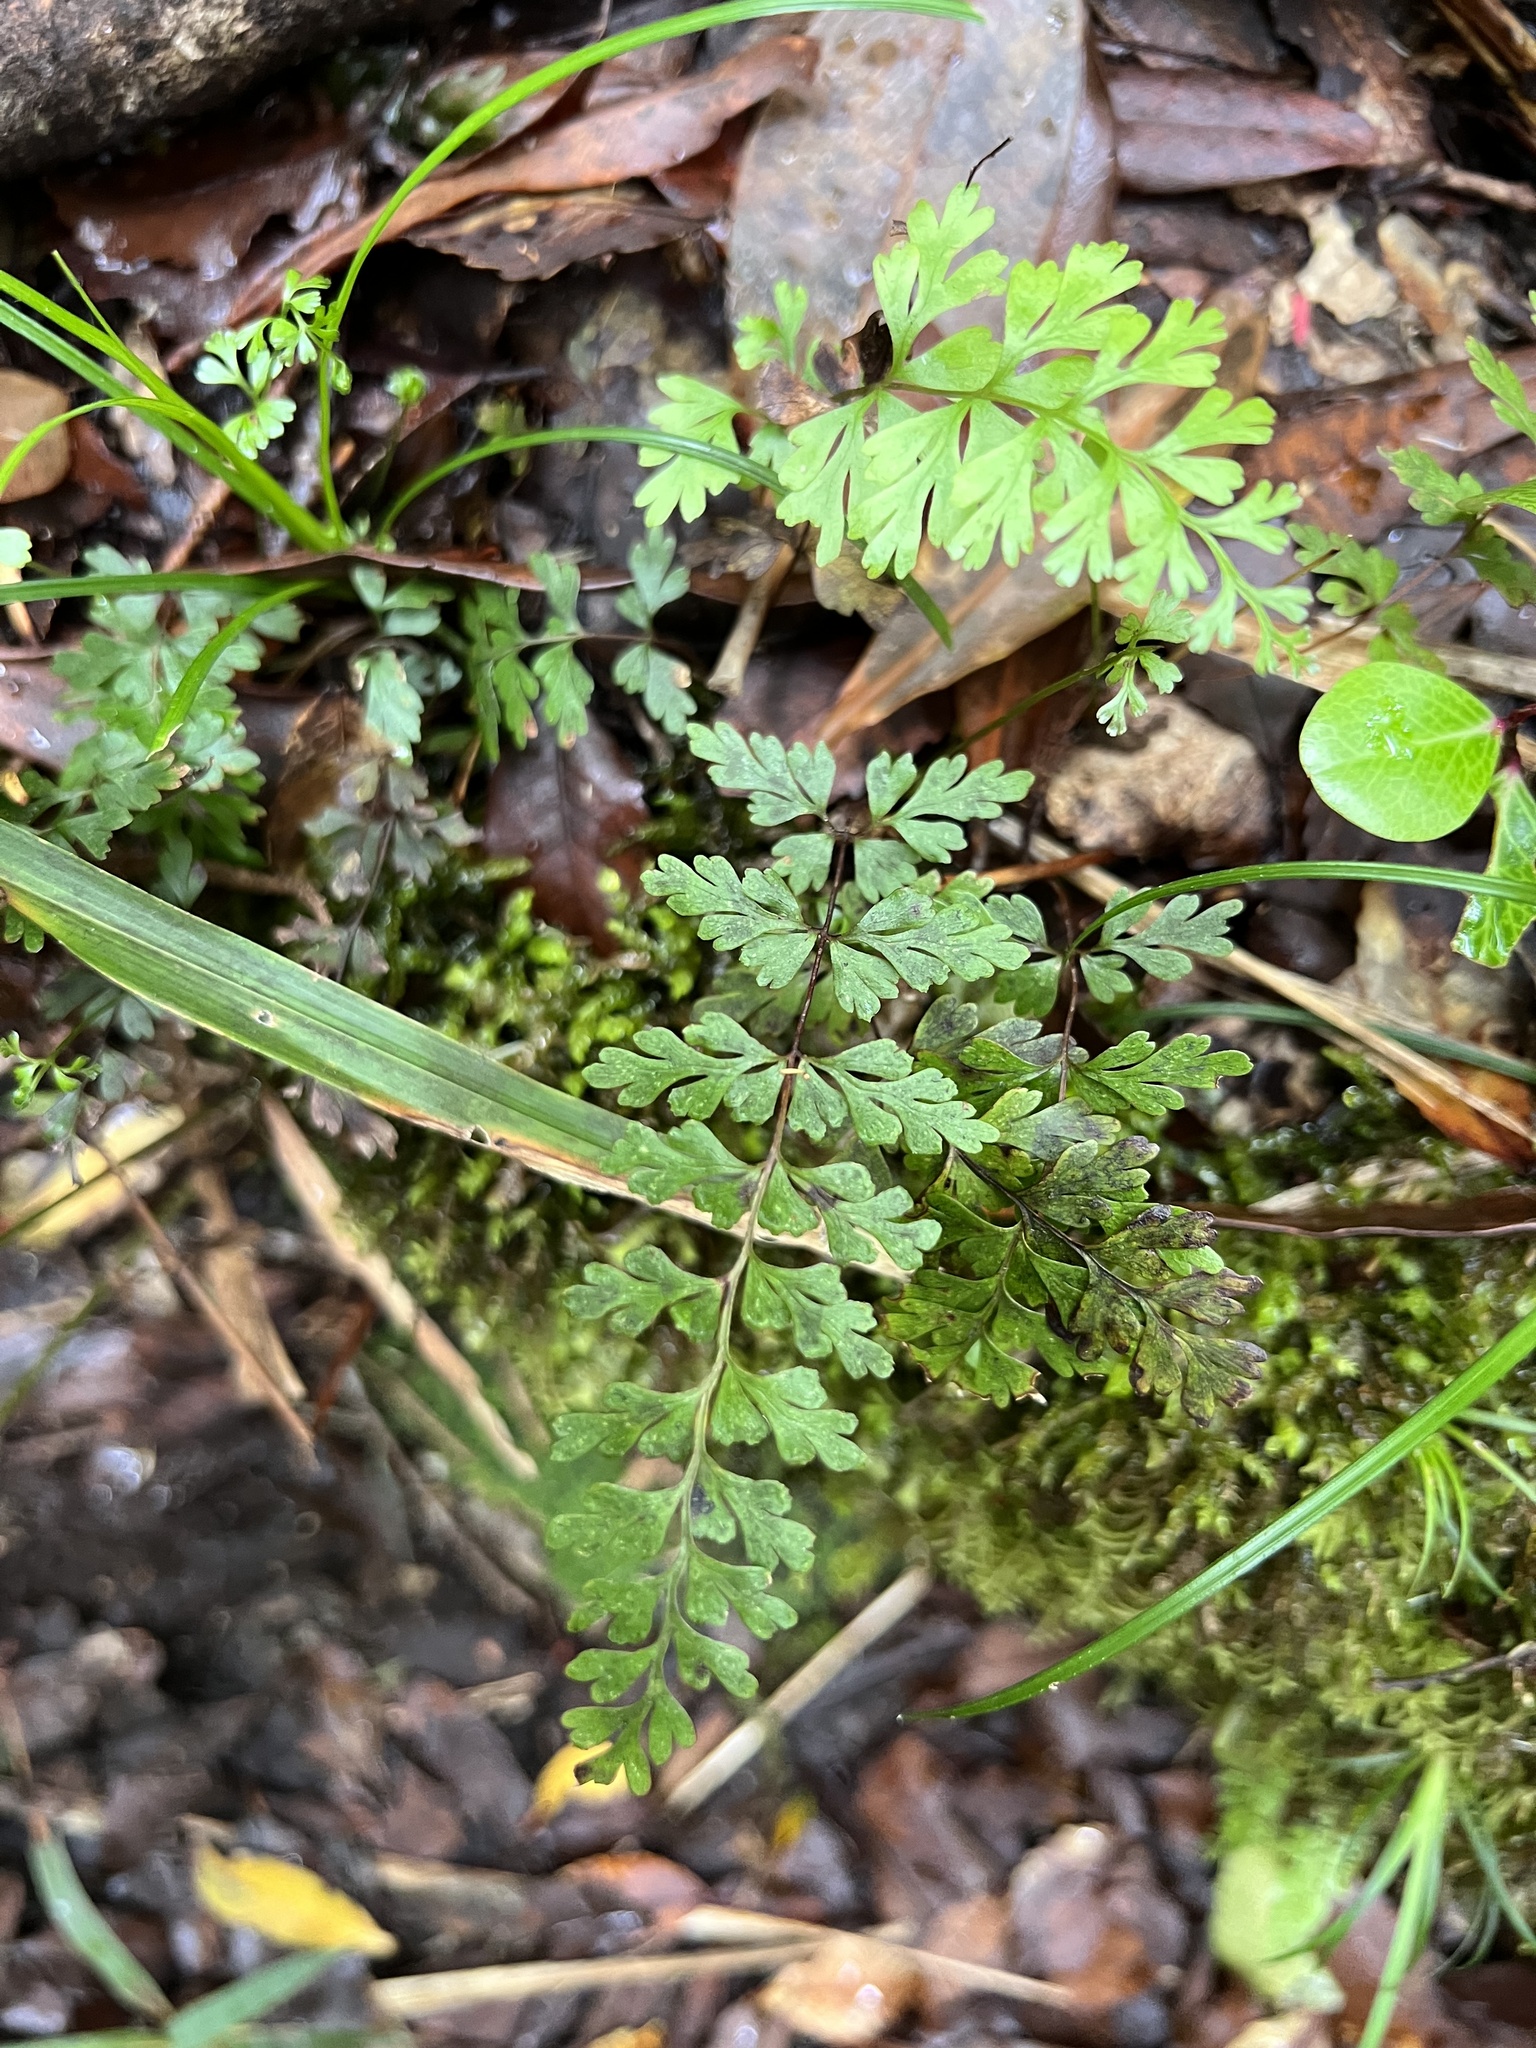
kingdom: Plantae
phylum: Tracheophyta
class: Polypodiopsida
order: Polypodiales
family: Lindsaeaceae
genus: Lindsaea
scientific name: Lindsaea trichomanoides
